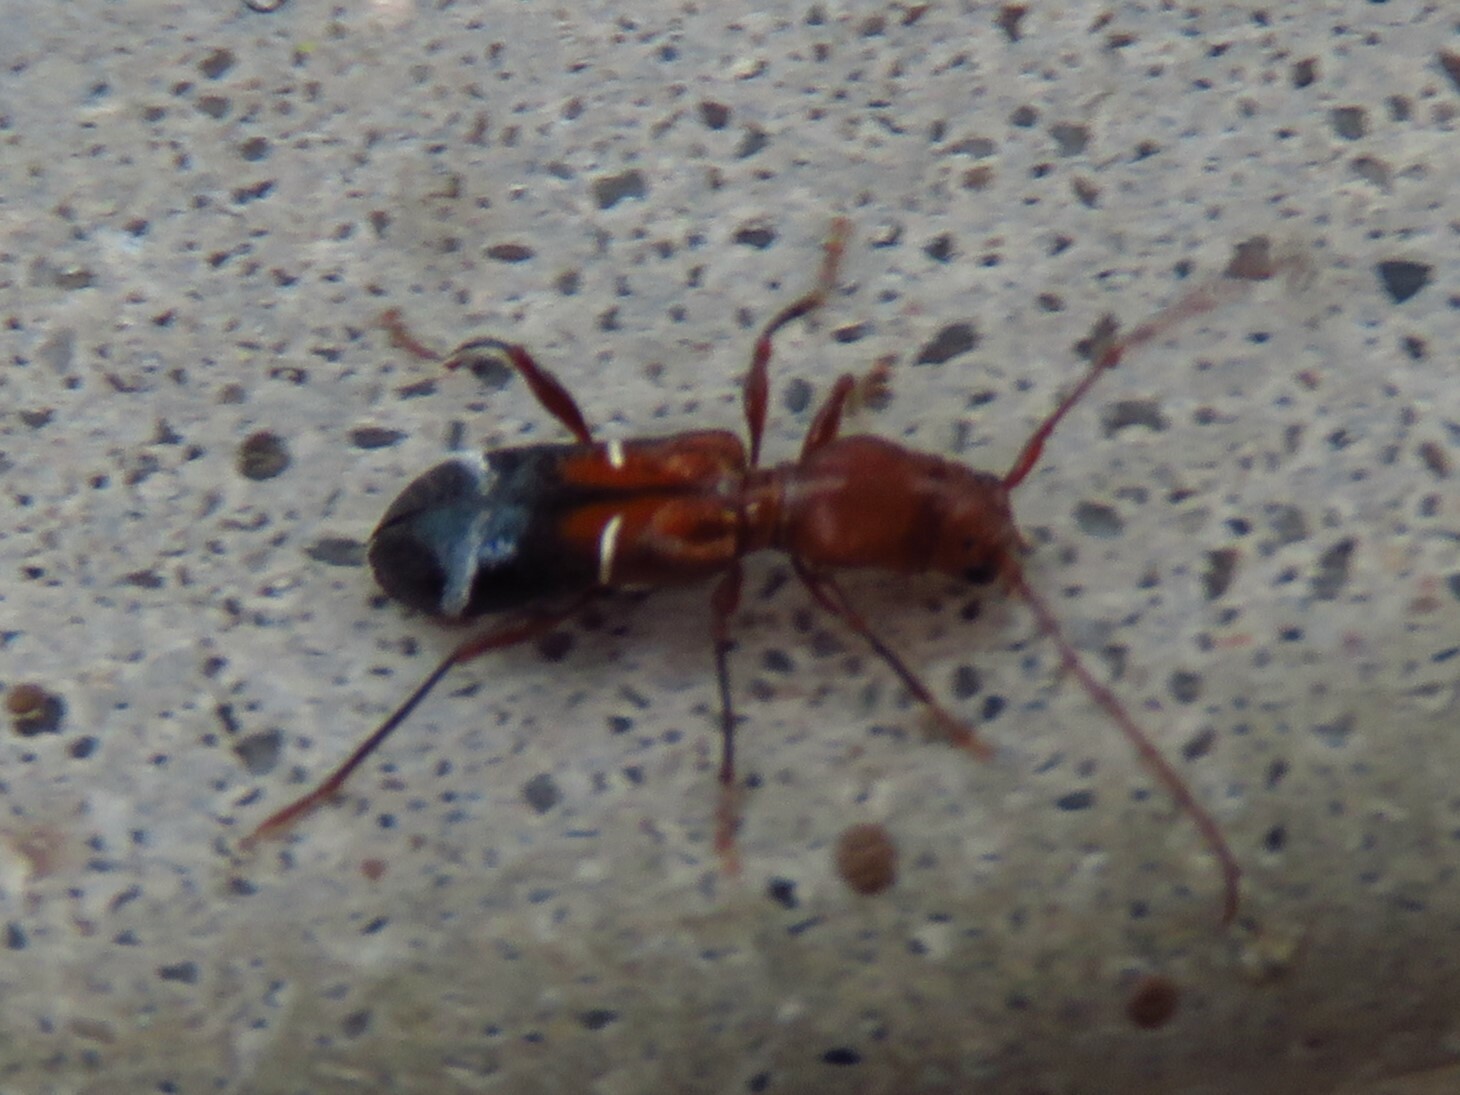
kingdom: Animalia
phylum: Arthropoda
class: Insecta
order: Coleoptera
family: Cerambycidae
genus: Euderces
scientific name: Euderces pini
